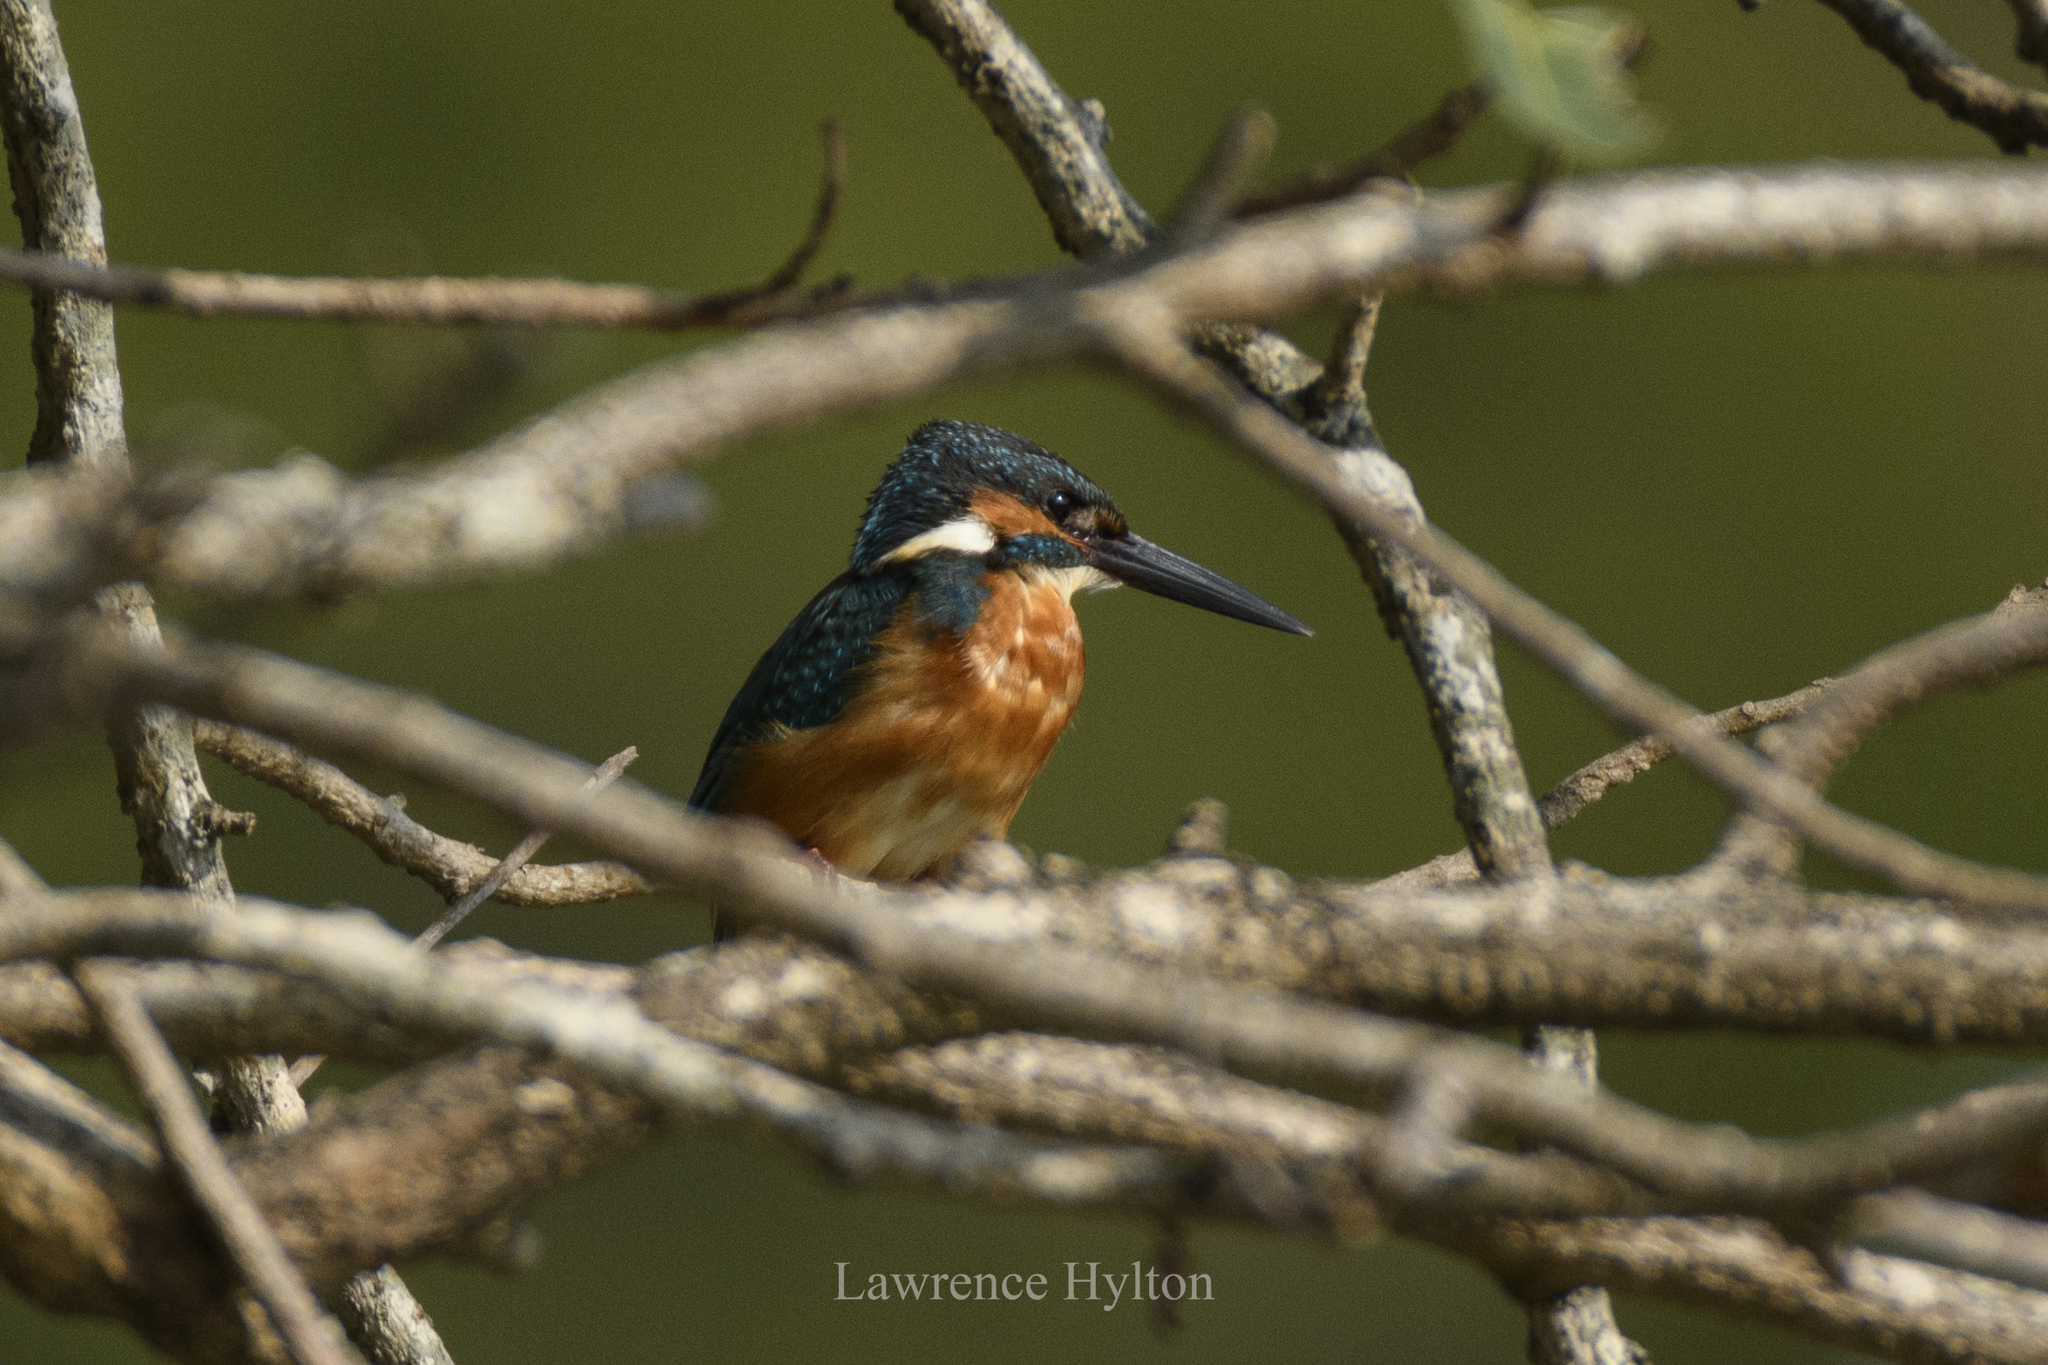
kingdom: Animalia
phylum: Chordata
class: Aves
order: Coraciiformes
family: Alcedinidae
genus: Alcedo
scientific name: Alcedo atthis
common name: Common kingfisher
